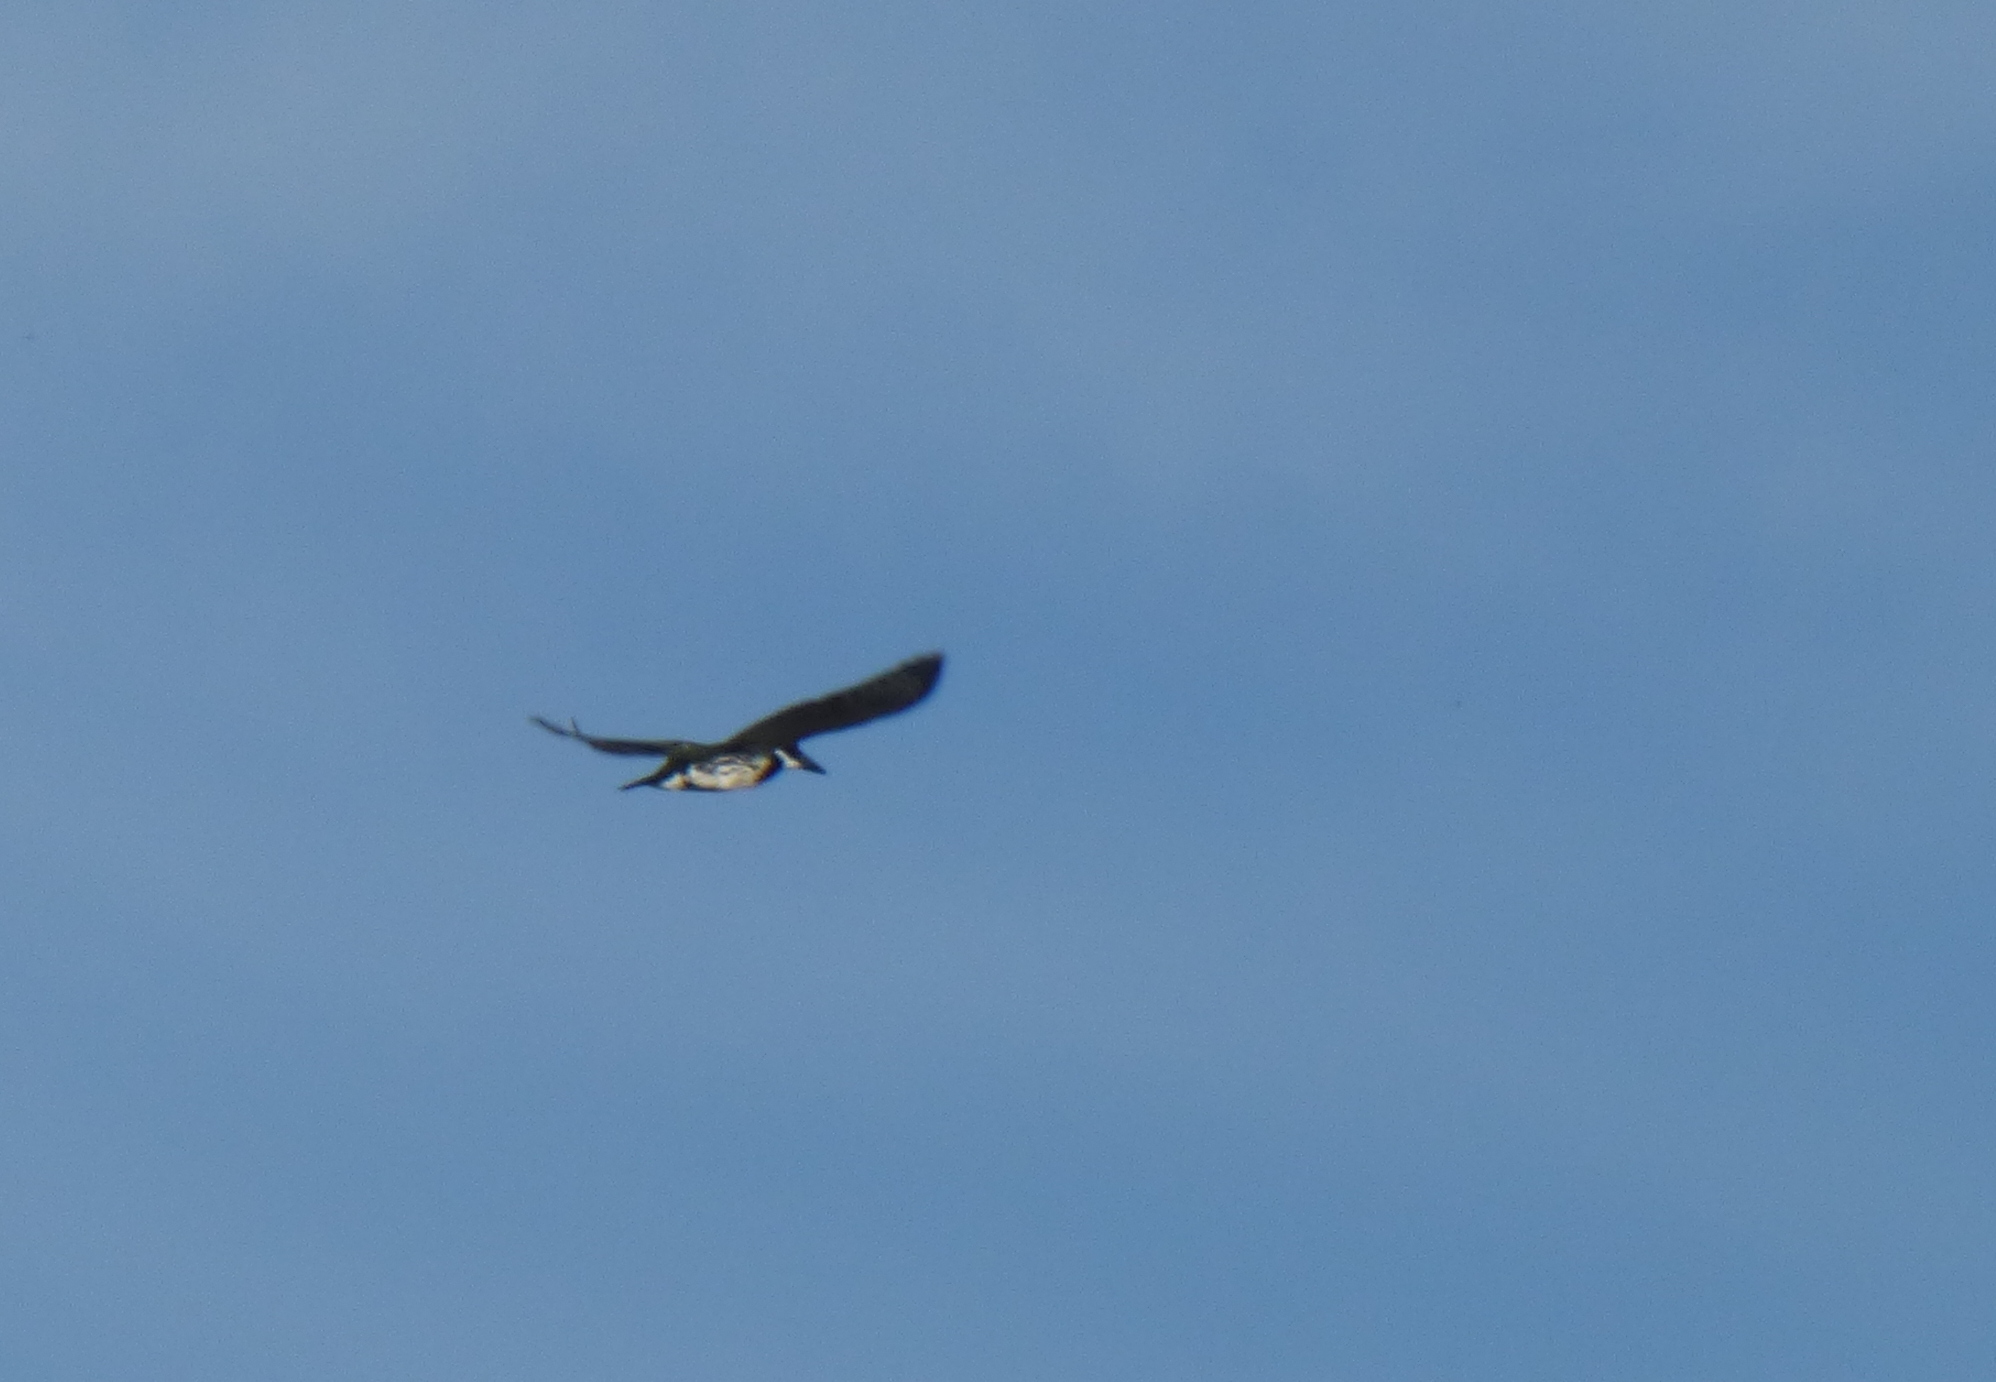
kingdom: Animalia
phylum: Chordata
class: Aves
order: Coraciiformes
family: Alcedinidae
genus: Chloroceryle
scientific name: Chloroceryle amazona
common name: Amazon kingfisher
